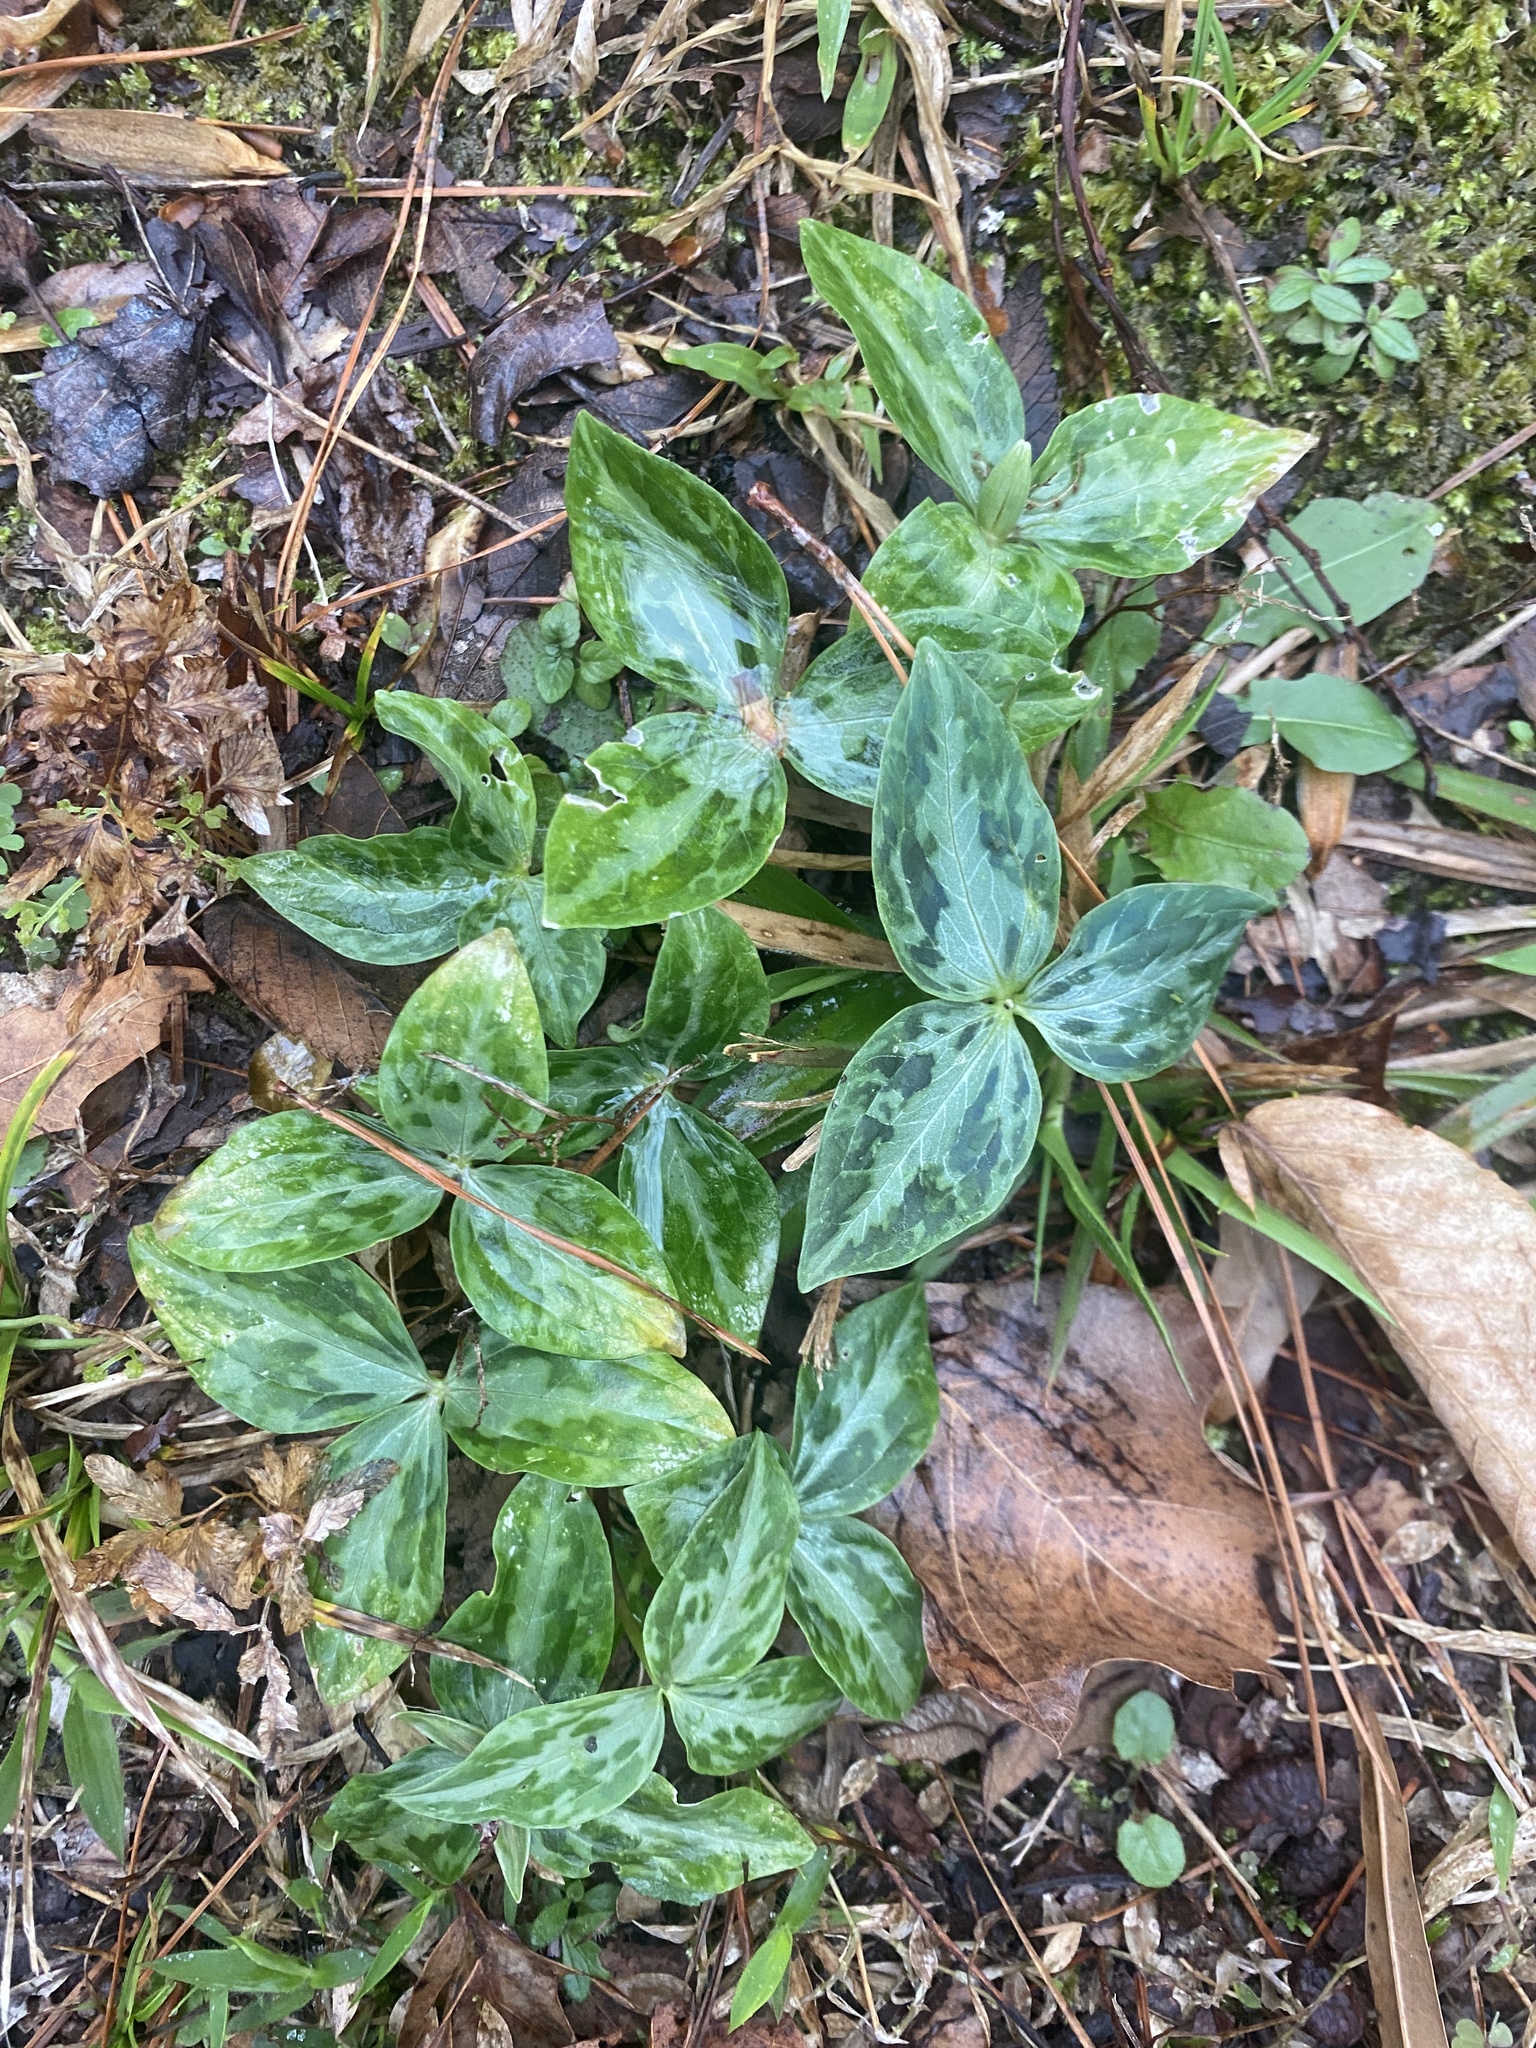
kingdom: Plantae
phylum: Tracheophyta
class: Liliopsida
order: Liliales
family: Melanthiaceae
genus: Trillium
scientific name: Trillium foetidissimum
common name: Mississippi river trillium
